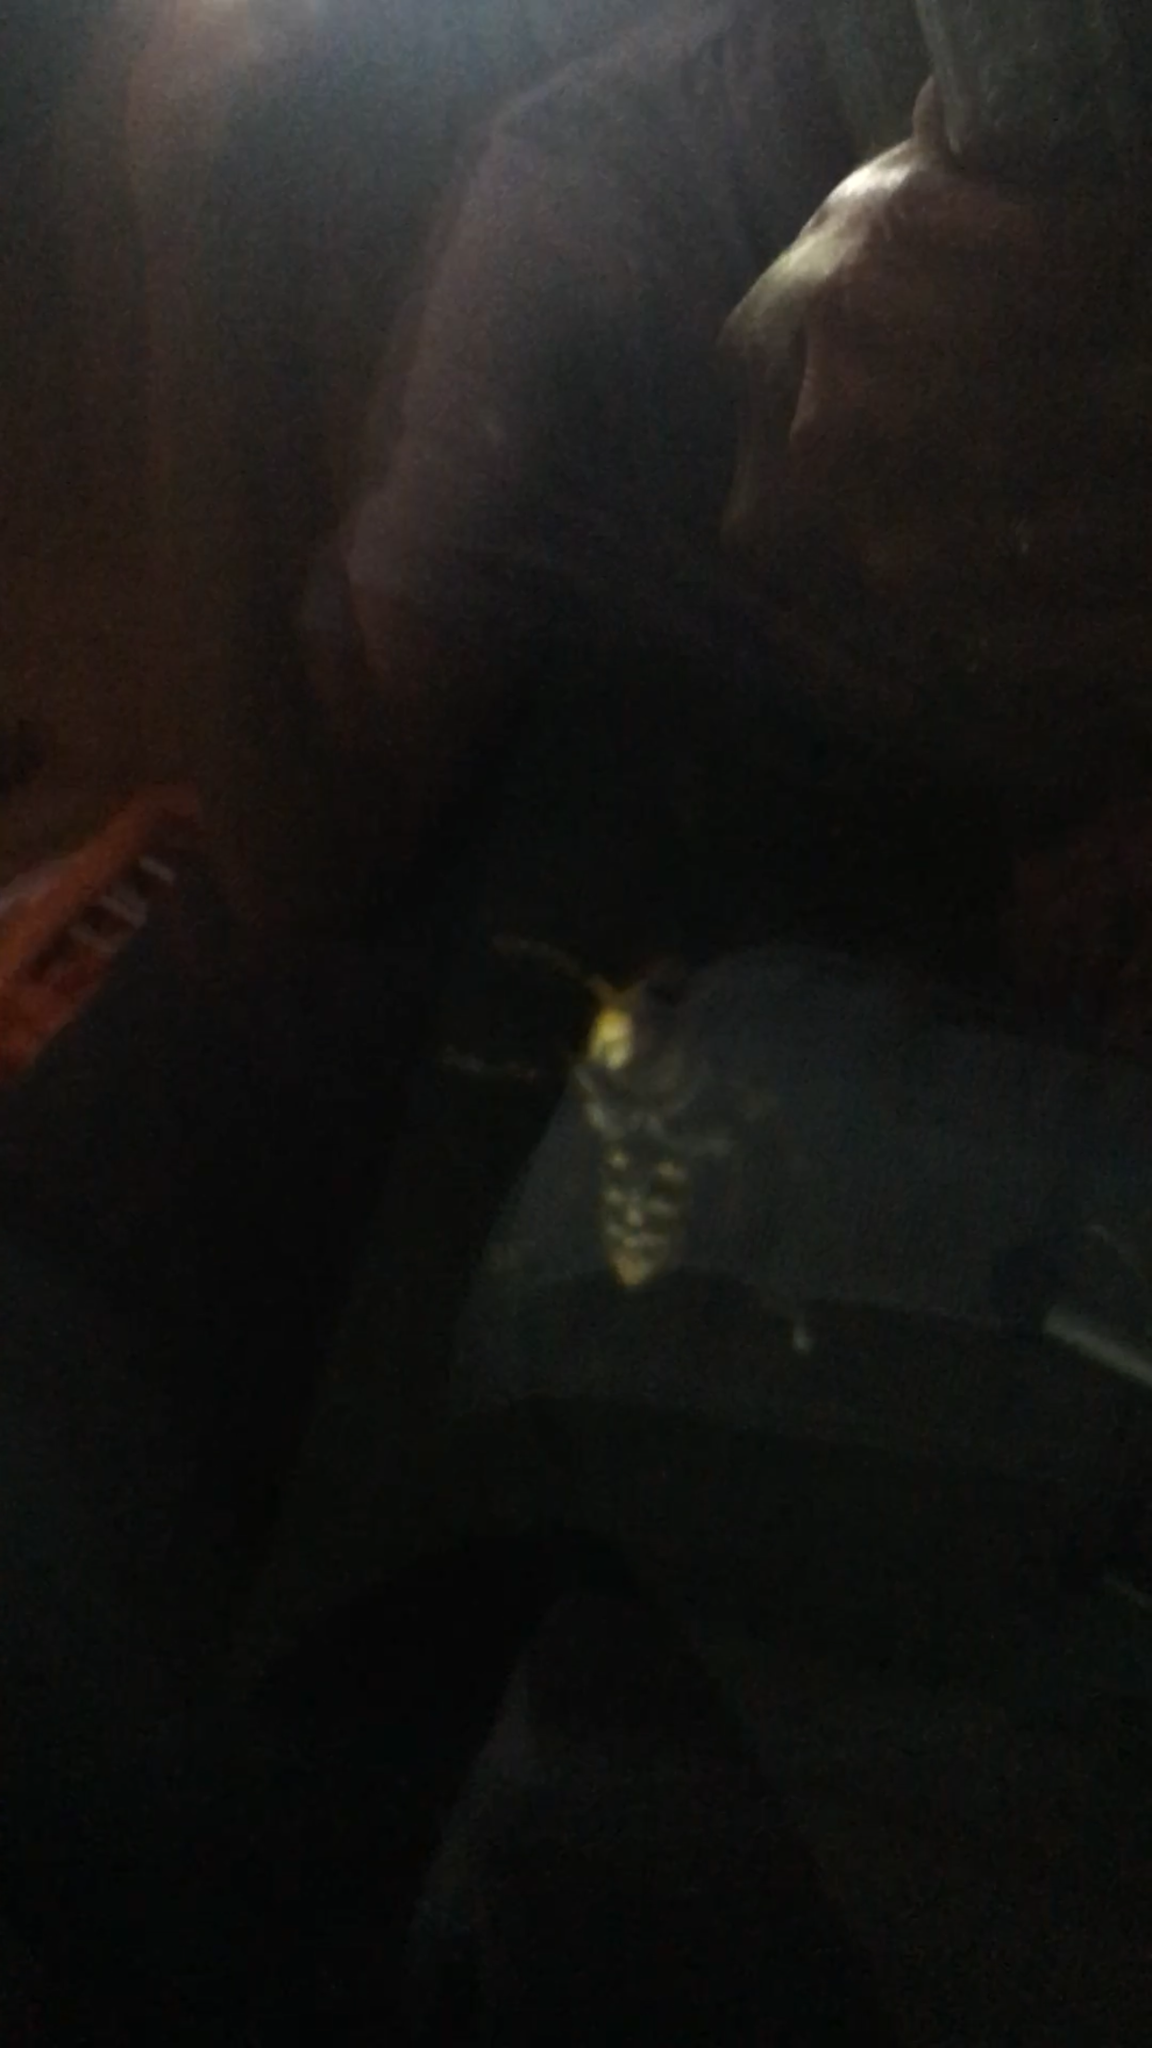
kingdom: Animalia
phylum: Arthropoda
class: Insecta
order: Hymenoptera
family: Vespidae
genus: Vespa
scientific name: Vespa crabro
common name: Hornet
